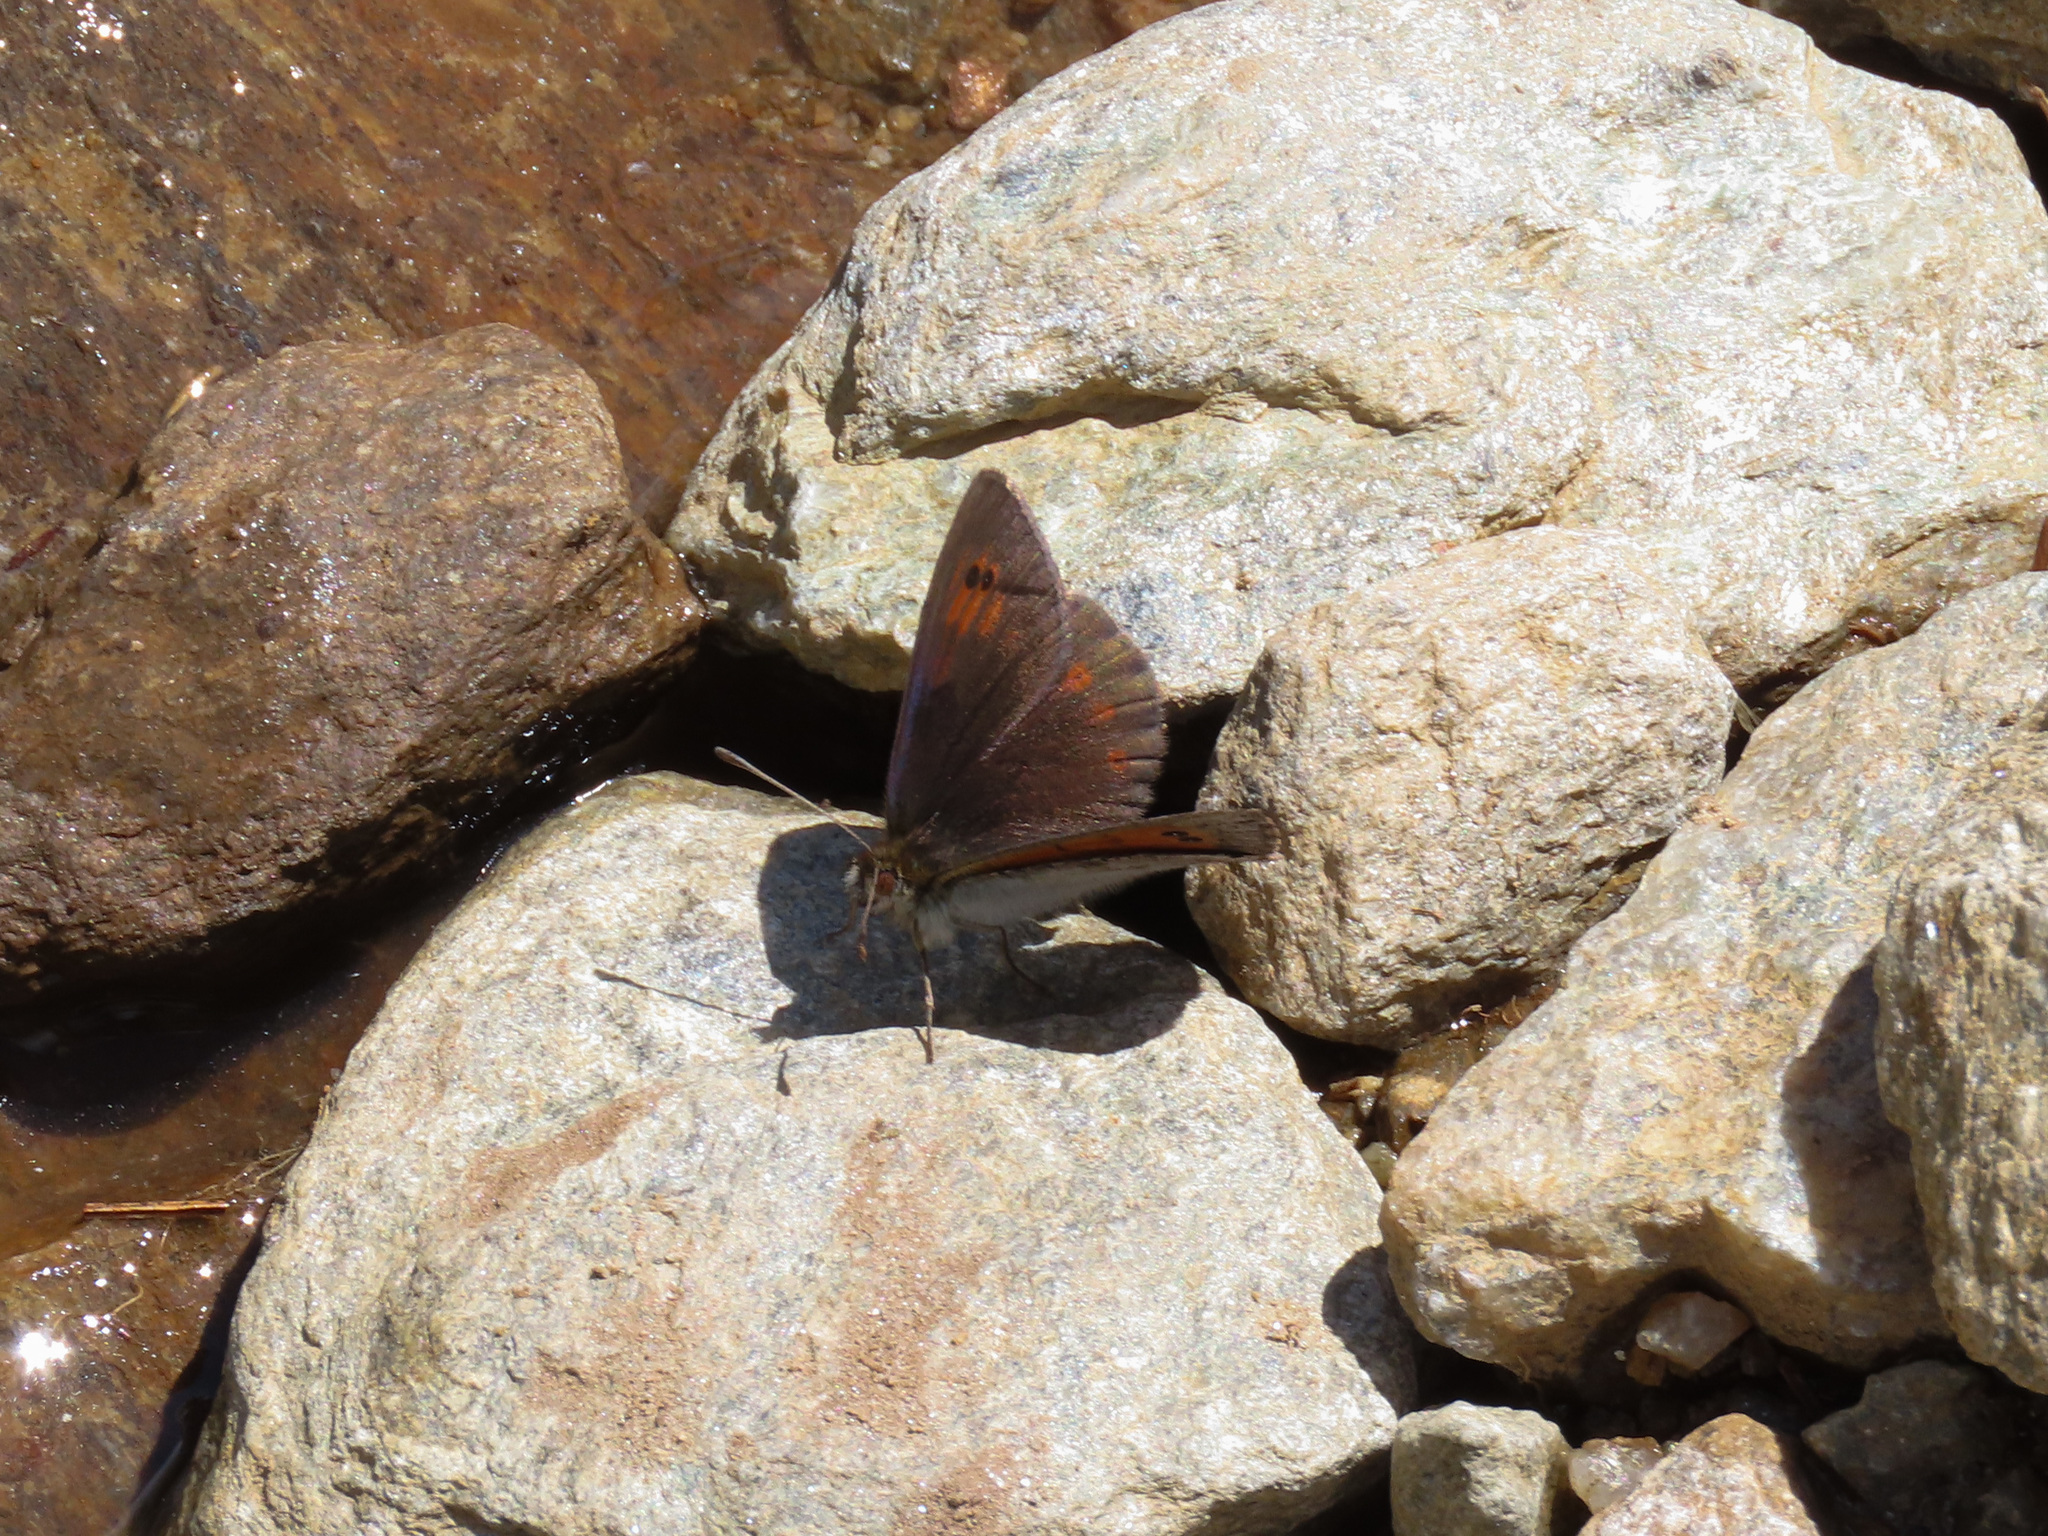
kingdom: Animalia
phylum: Arthropoda
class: Insecta
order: Lepidoptera
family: Nymphalidae
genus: Erebia
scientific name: Erebia tyndarus
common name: Swiss brassy ringlet
